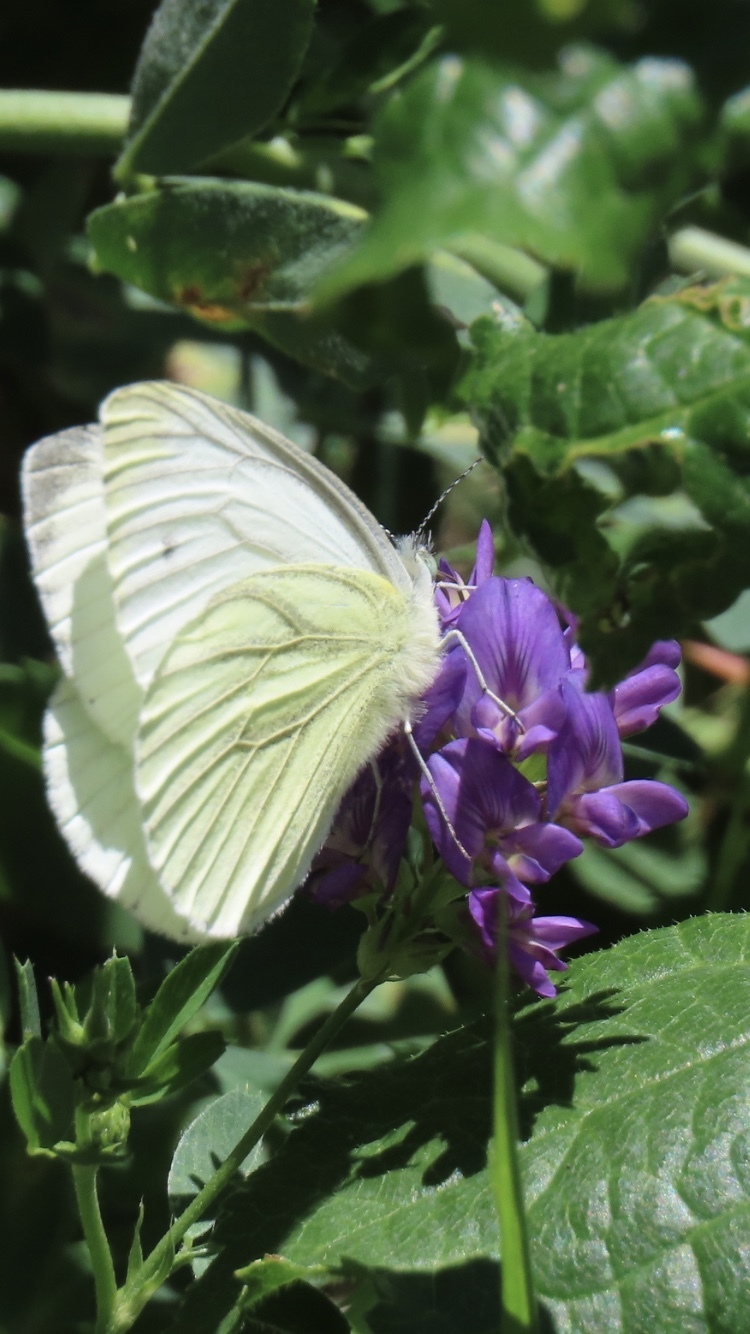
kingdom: Animalia
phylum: Arthropoda
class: Insecta
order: Lepidoptera
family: Pieridae
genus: Pieris
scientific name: Pieris napi
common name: Green-veined white
